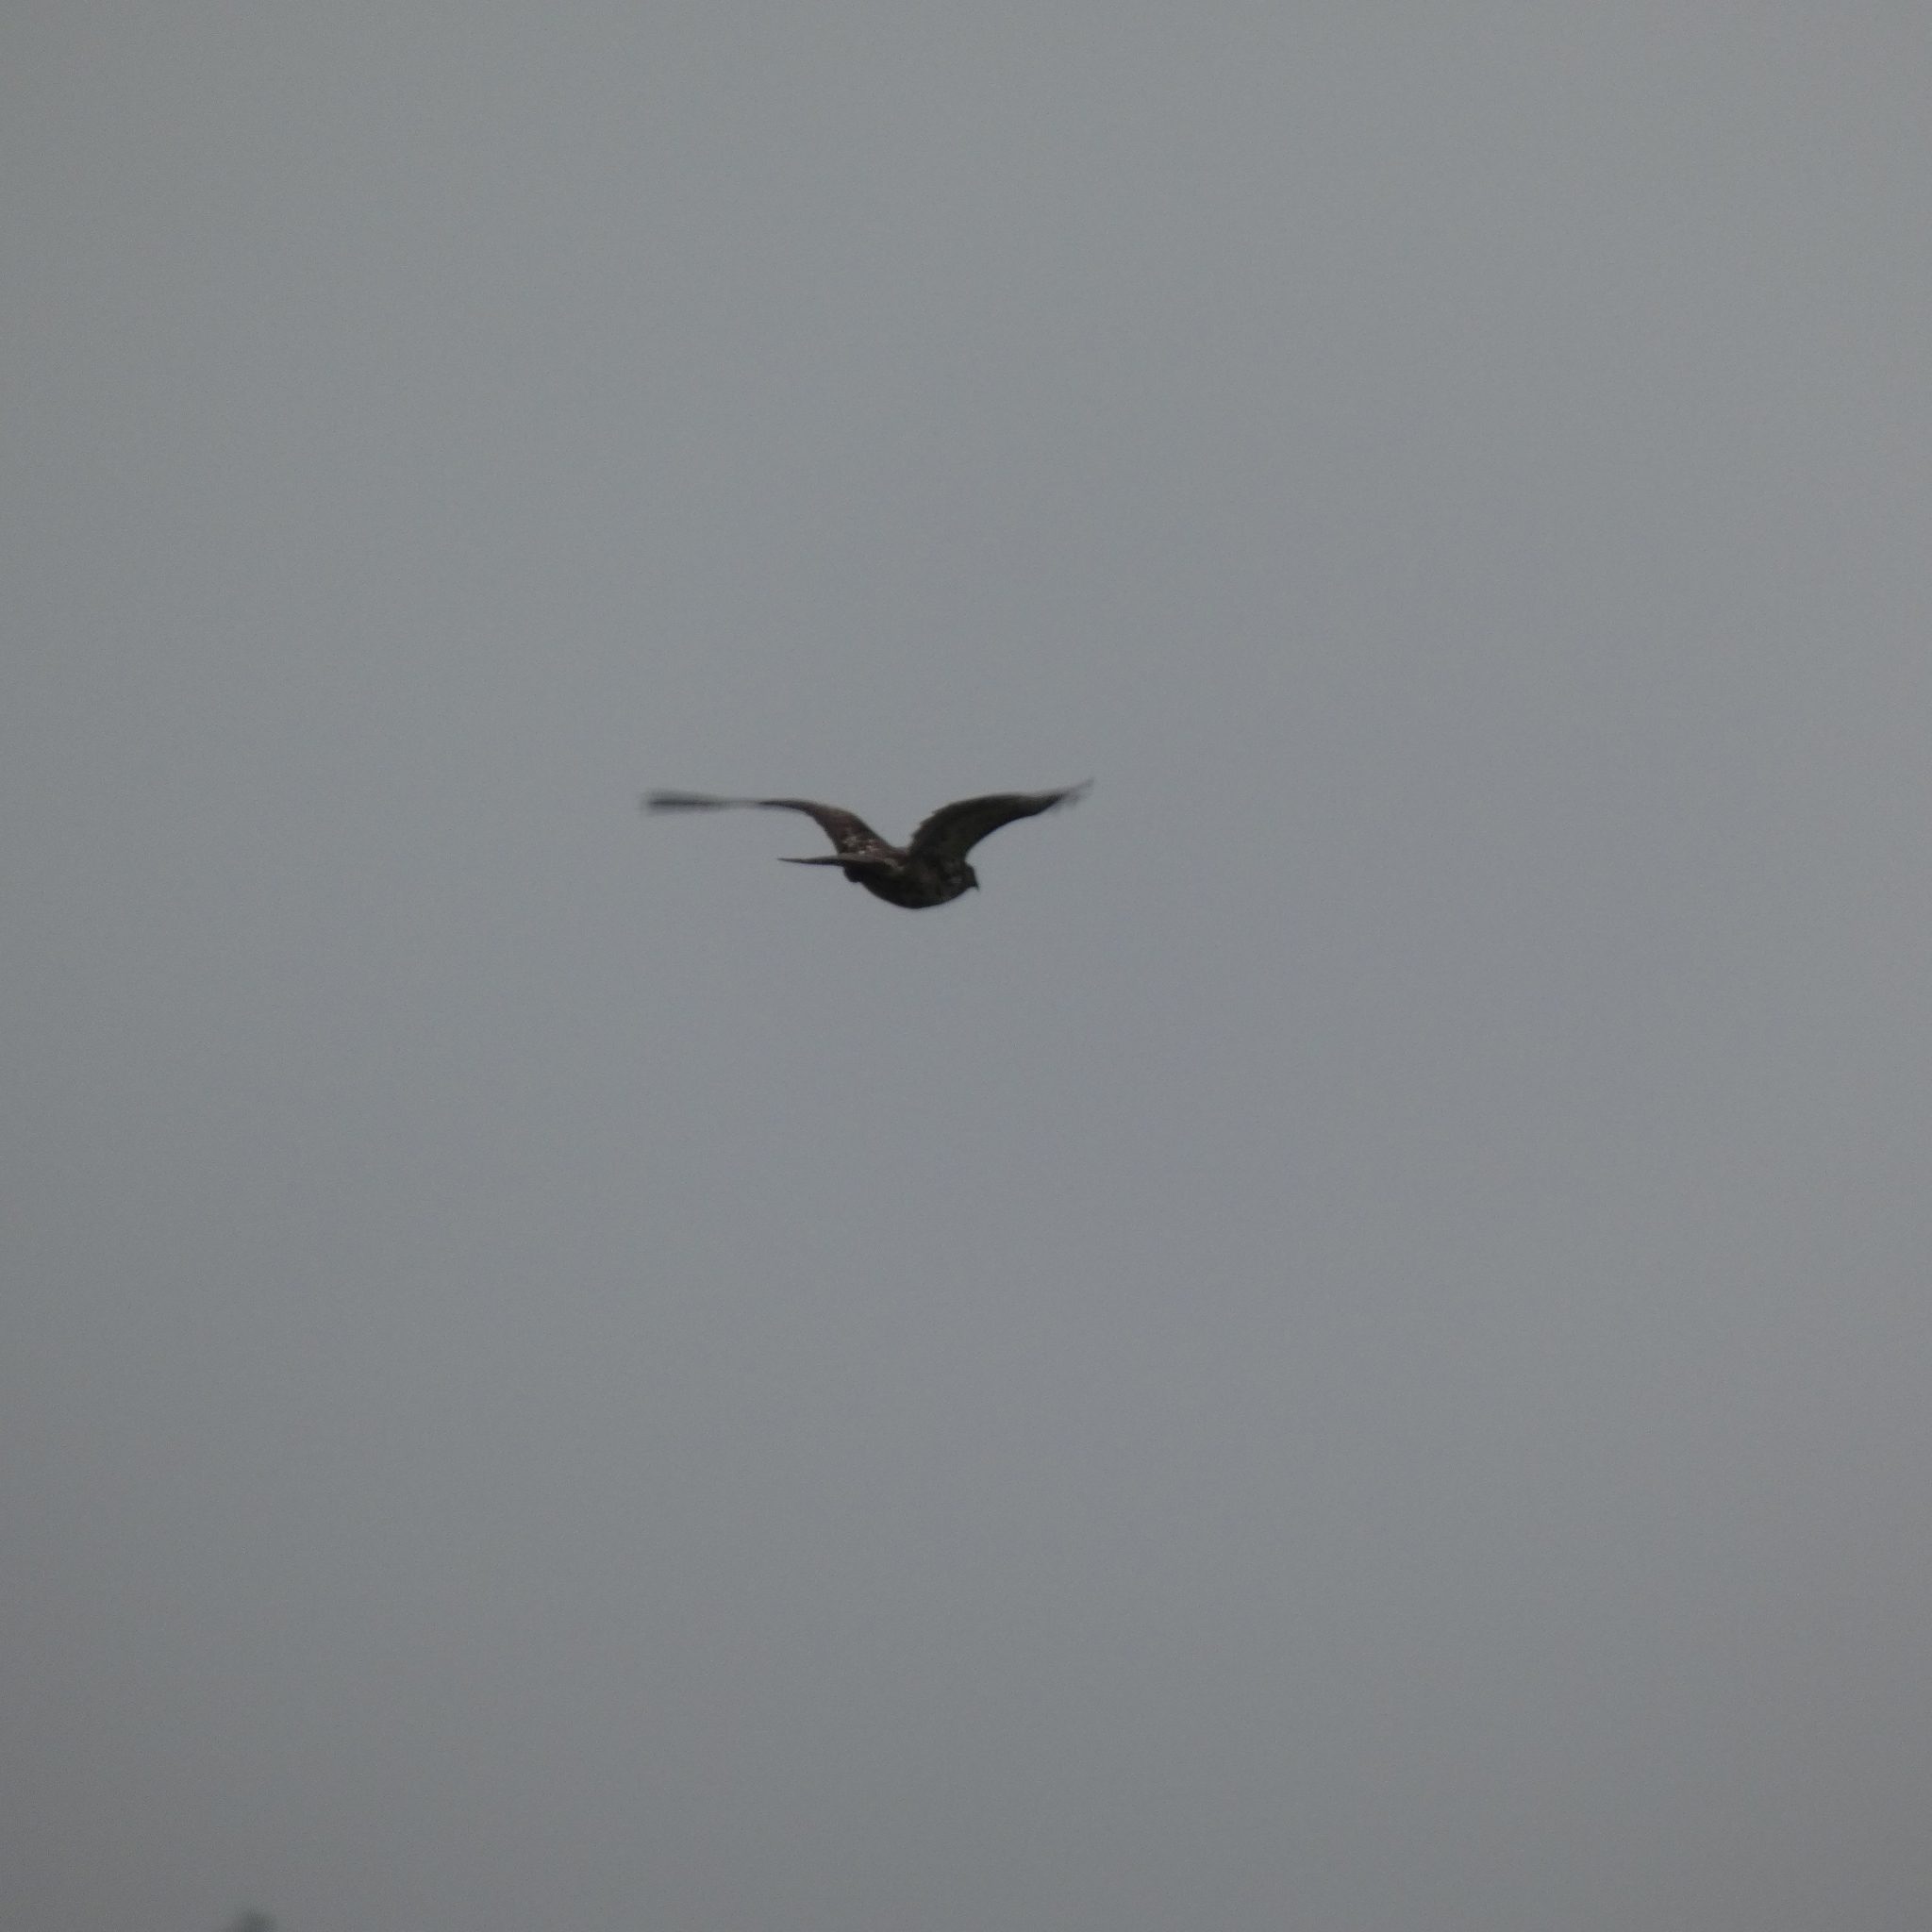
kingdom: Animalia
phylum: Chordata
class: Aves
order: Accipitriformes
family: Accipitridae
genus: Buteo
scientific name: Buteo jamaicensis
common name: Red-tailed hawk
